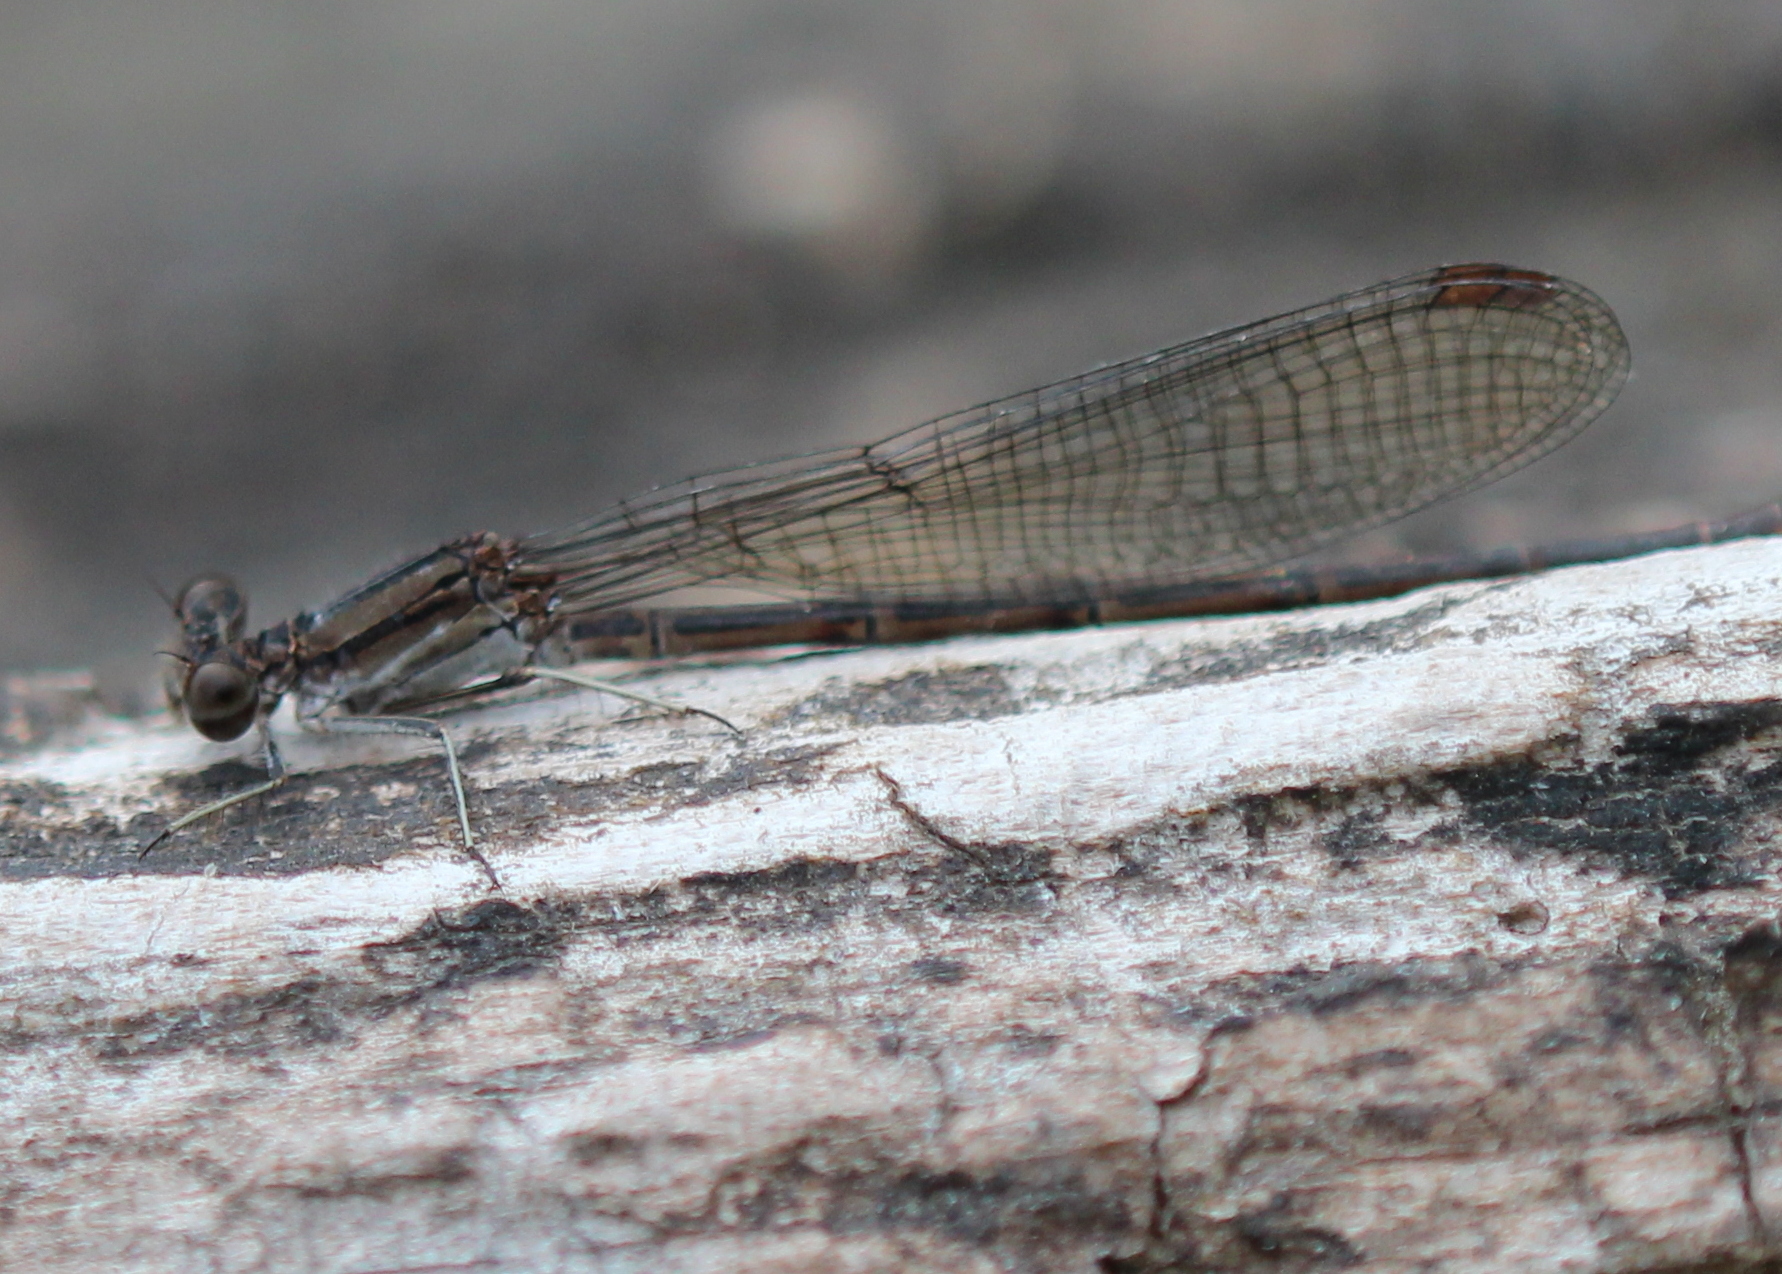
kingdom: Animalia
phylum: Arthropoda
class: Insecta
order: Odonata
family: Coenagrionidae
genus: Argia
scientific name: Argia fumipennis
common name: Variable dancer
